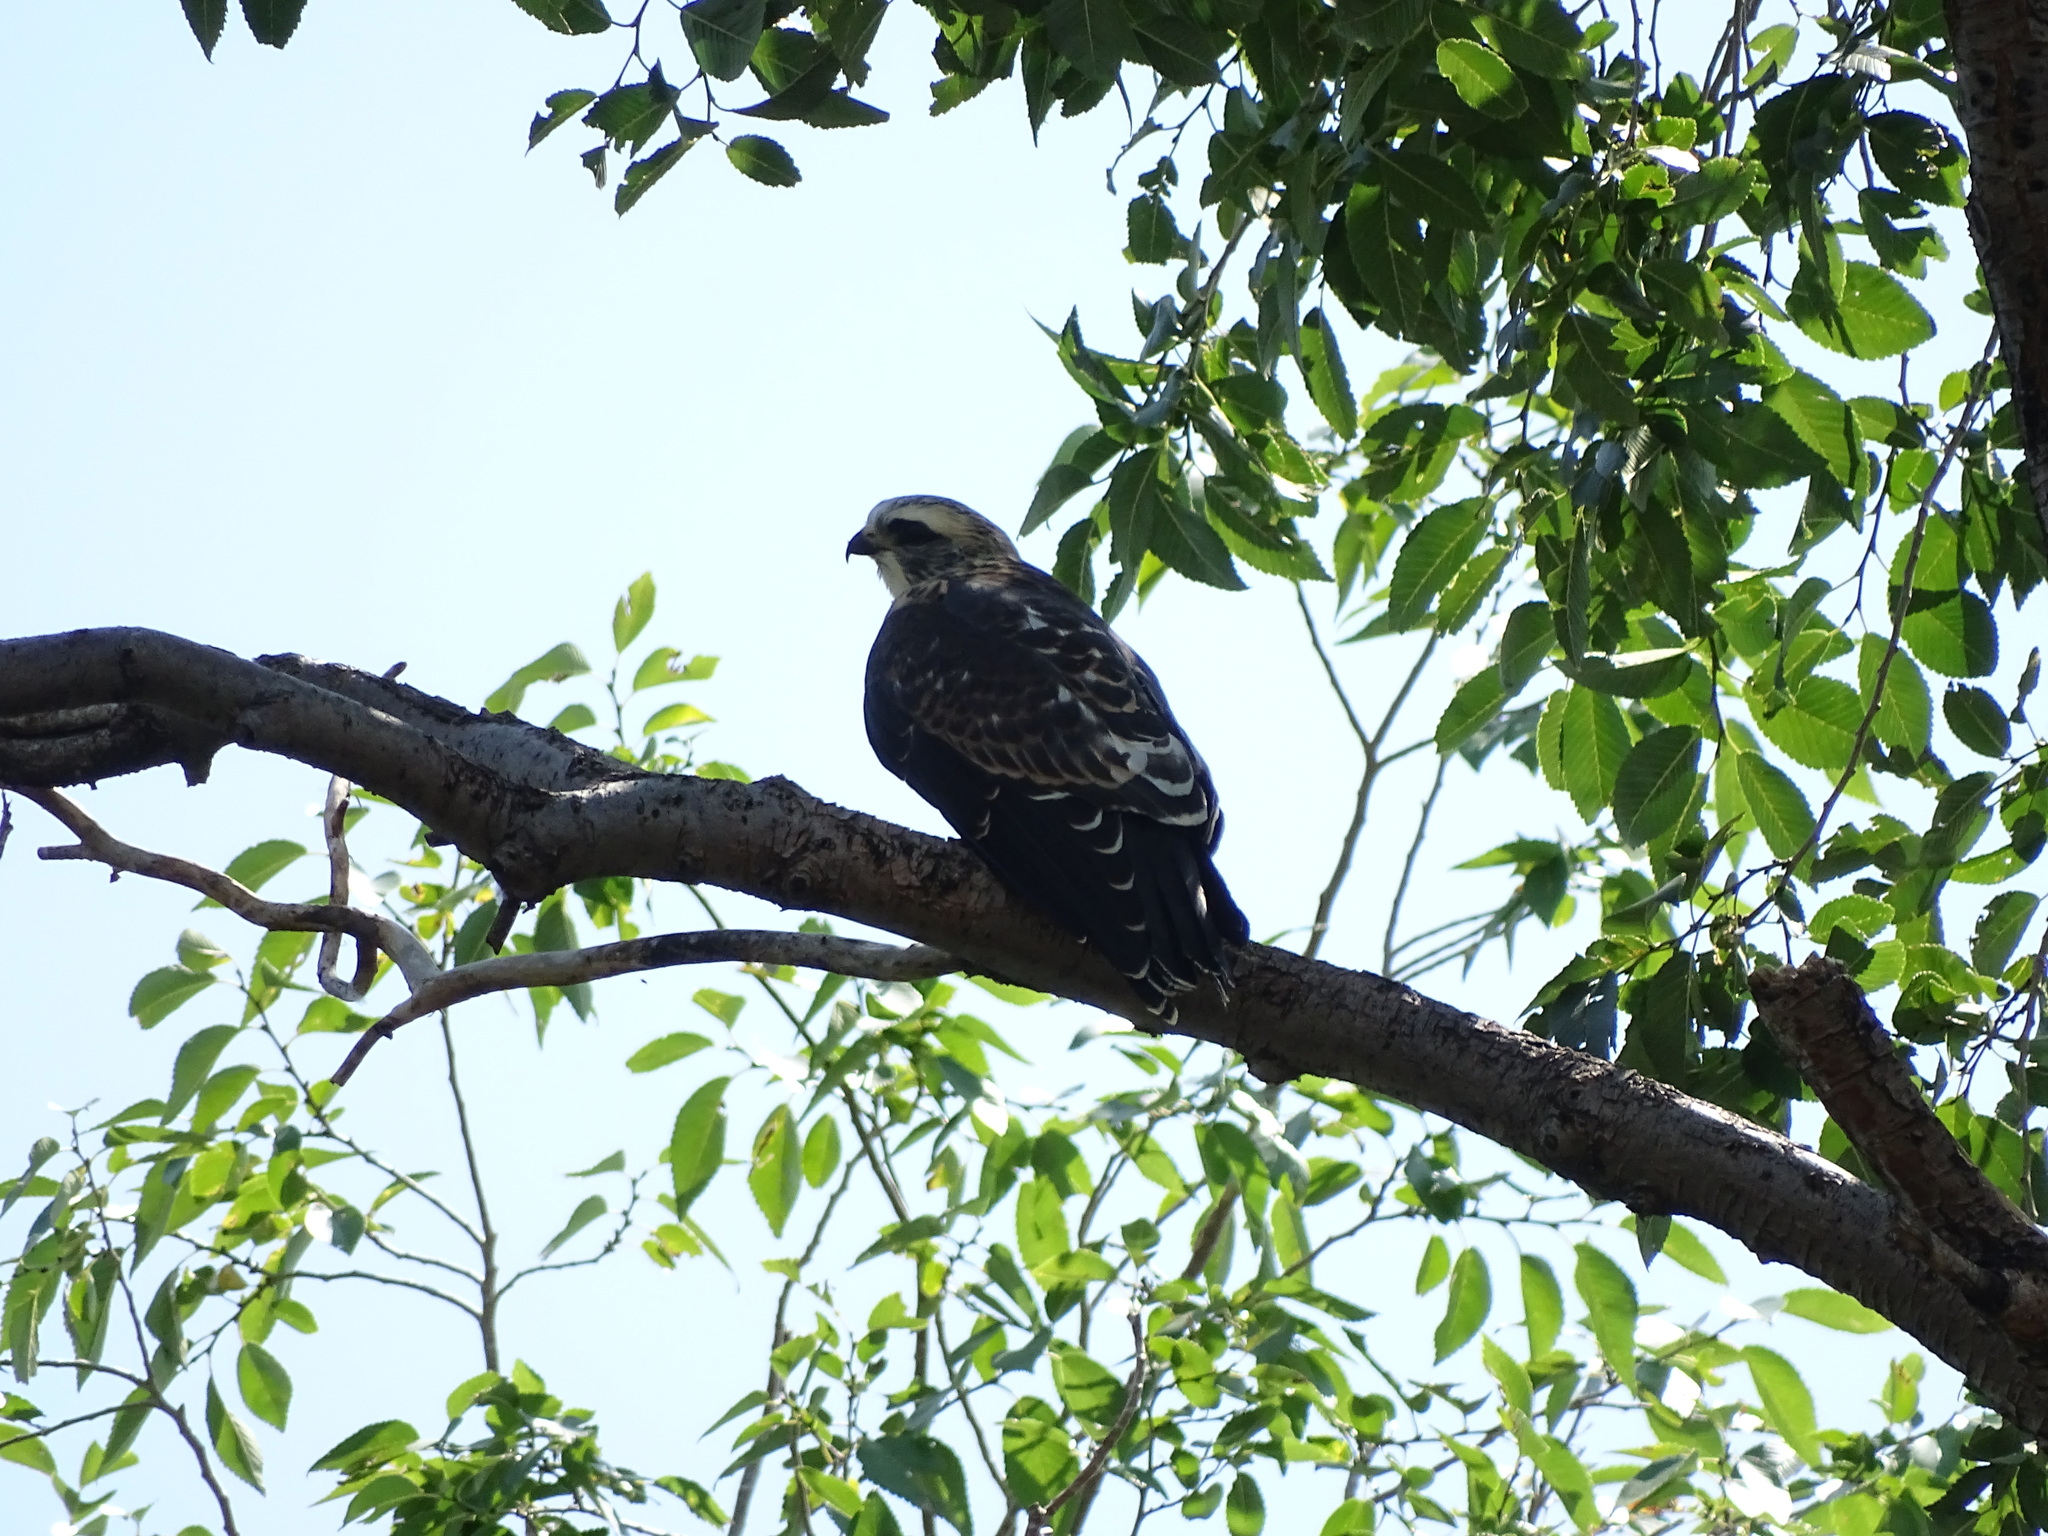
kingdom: Animalia
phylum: Chordata
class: Aves
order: Accipitriformes
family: Accipitridae
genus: Ictinia
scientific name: Ictinia mississippiensis
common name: Mississippi kite
